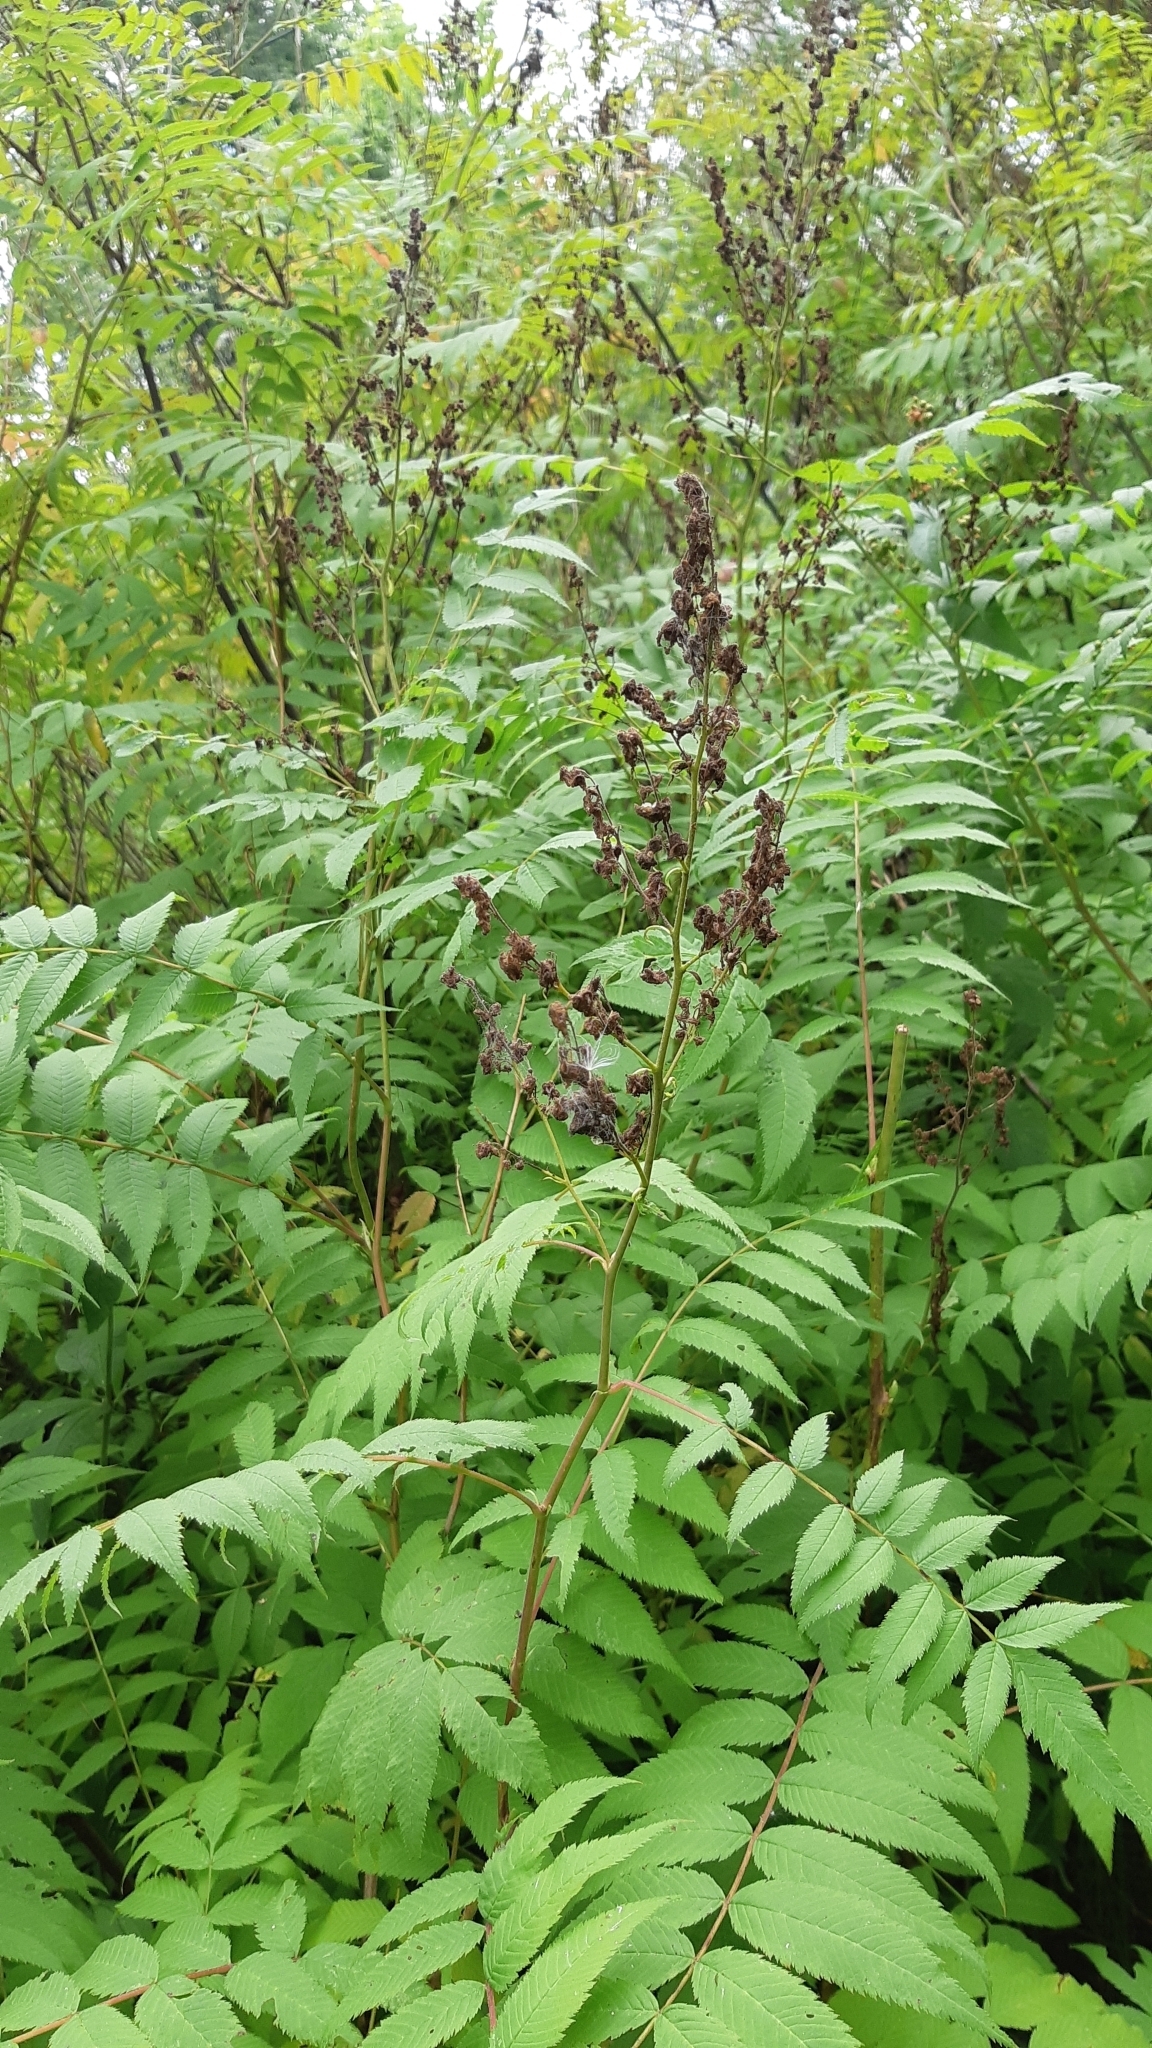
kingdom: Plantae
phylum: Tracheophyta
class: Magnoliopsida
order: Rosales
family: Rosaceae
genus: Sorbaria
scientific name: Sorbaria sorbifolia
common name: False spiraea
